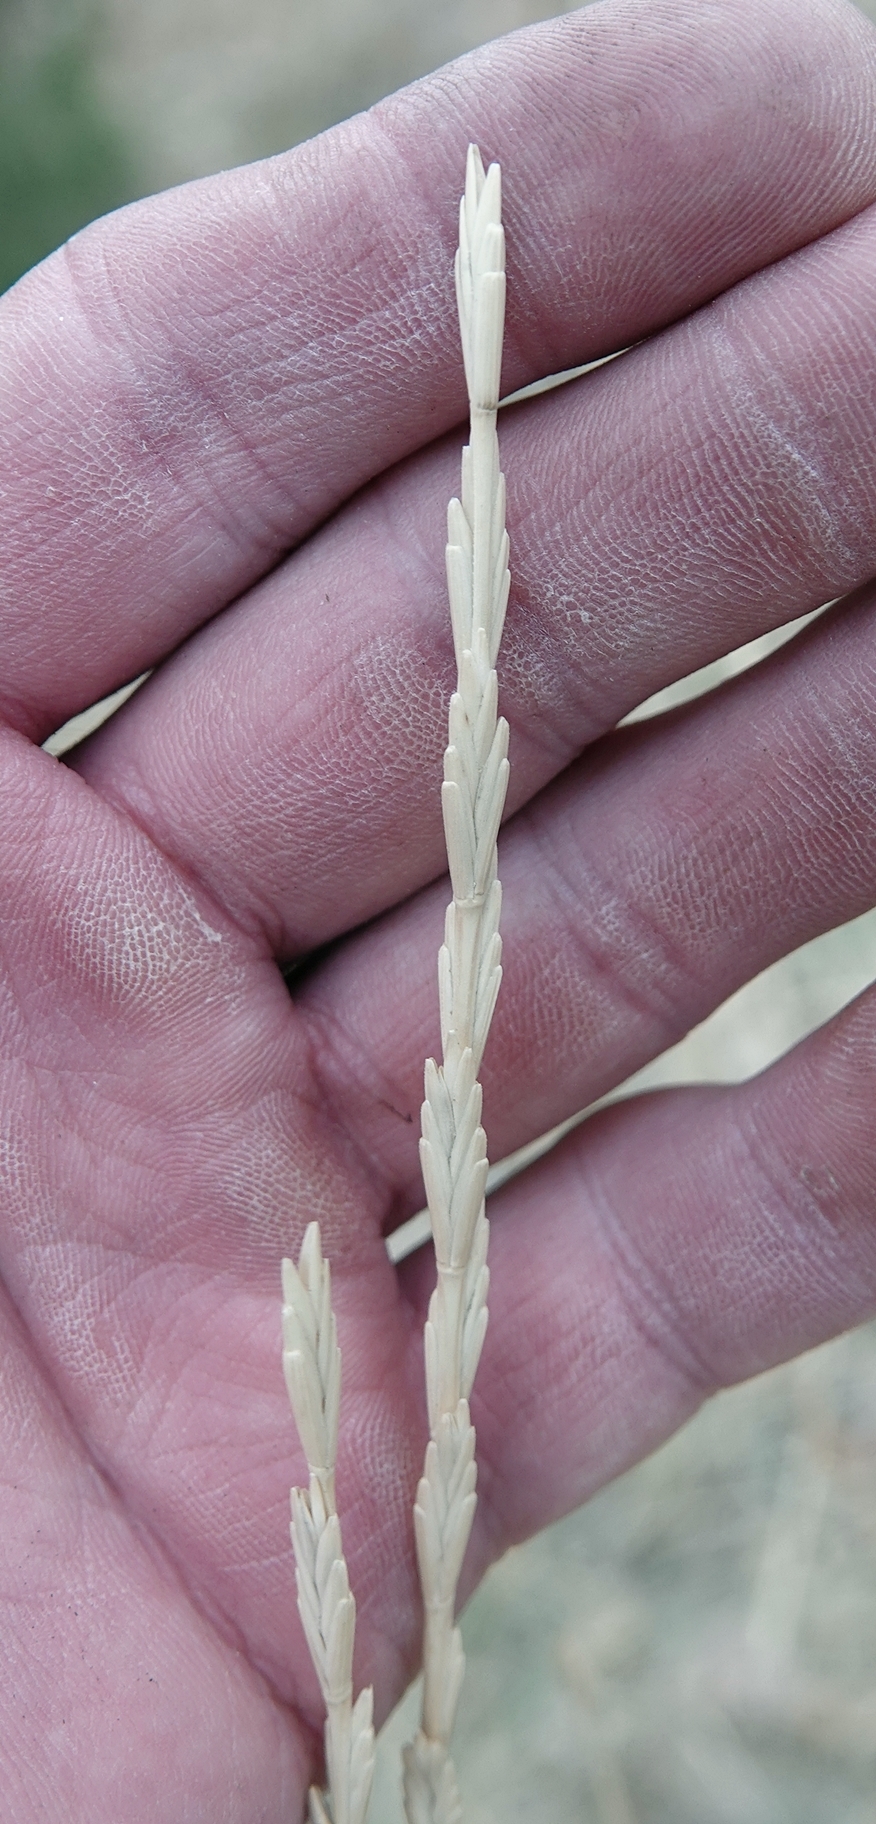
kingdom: Plantae
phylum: Tracheophyta
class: Liliopsida
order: Poales
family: Poaceae
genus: Thinopyrum
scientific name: Thinopyrum obtusiflorum
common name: Eurasian quackgrass
